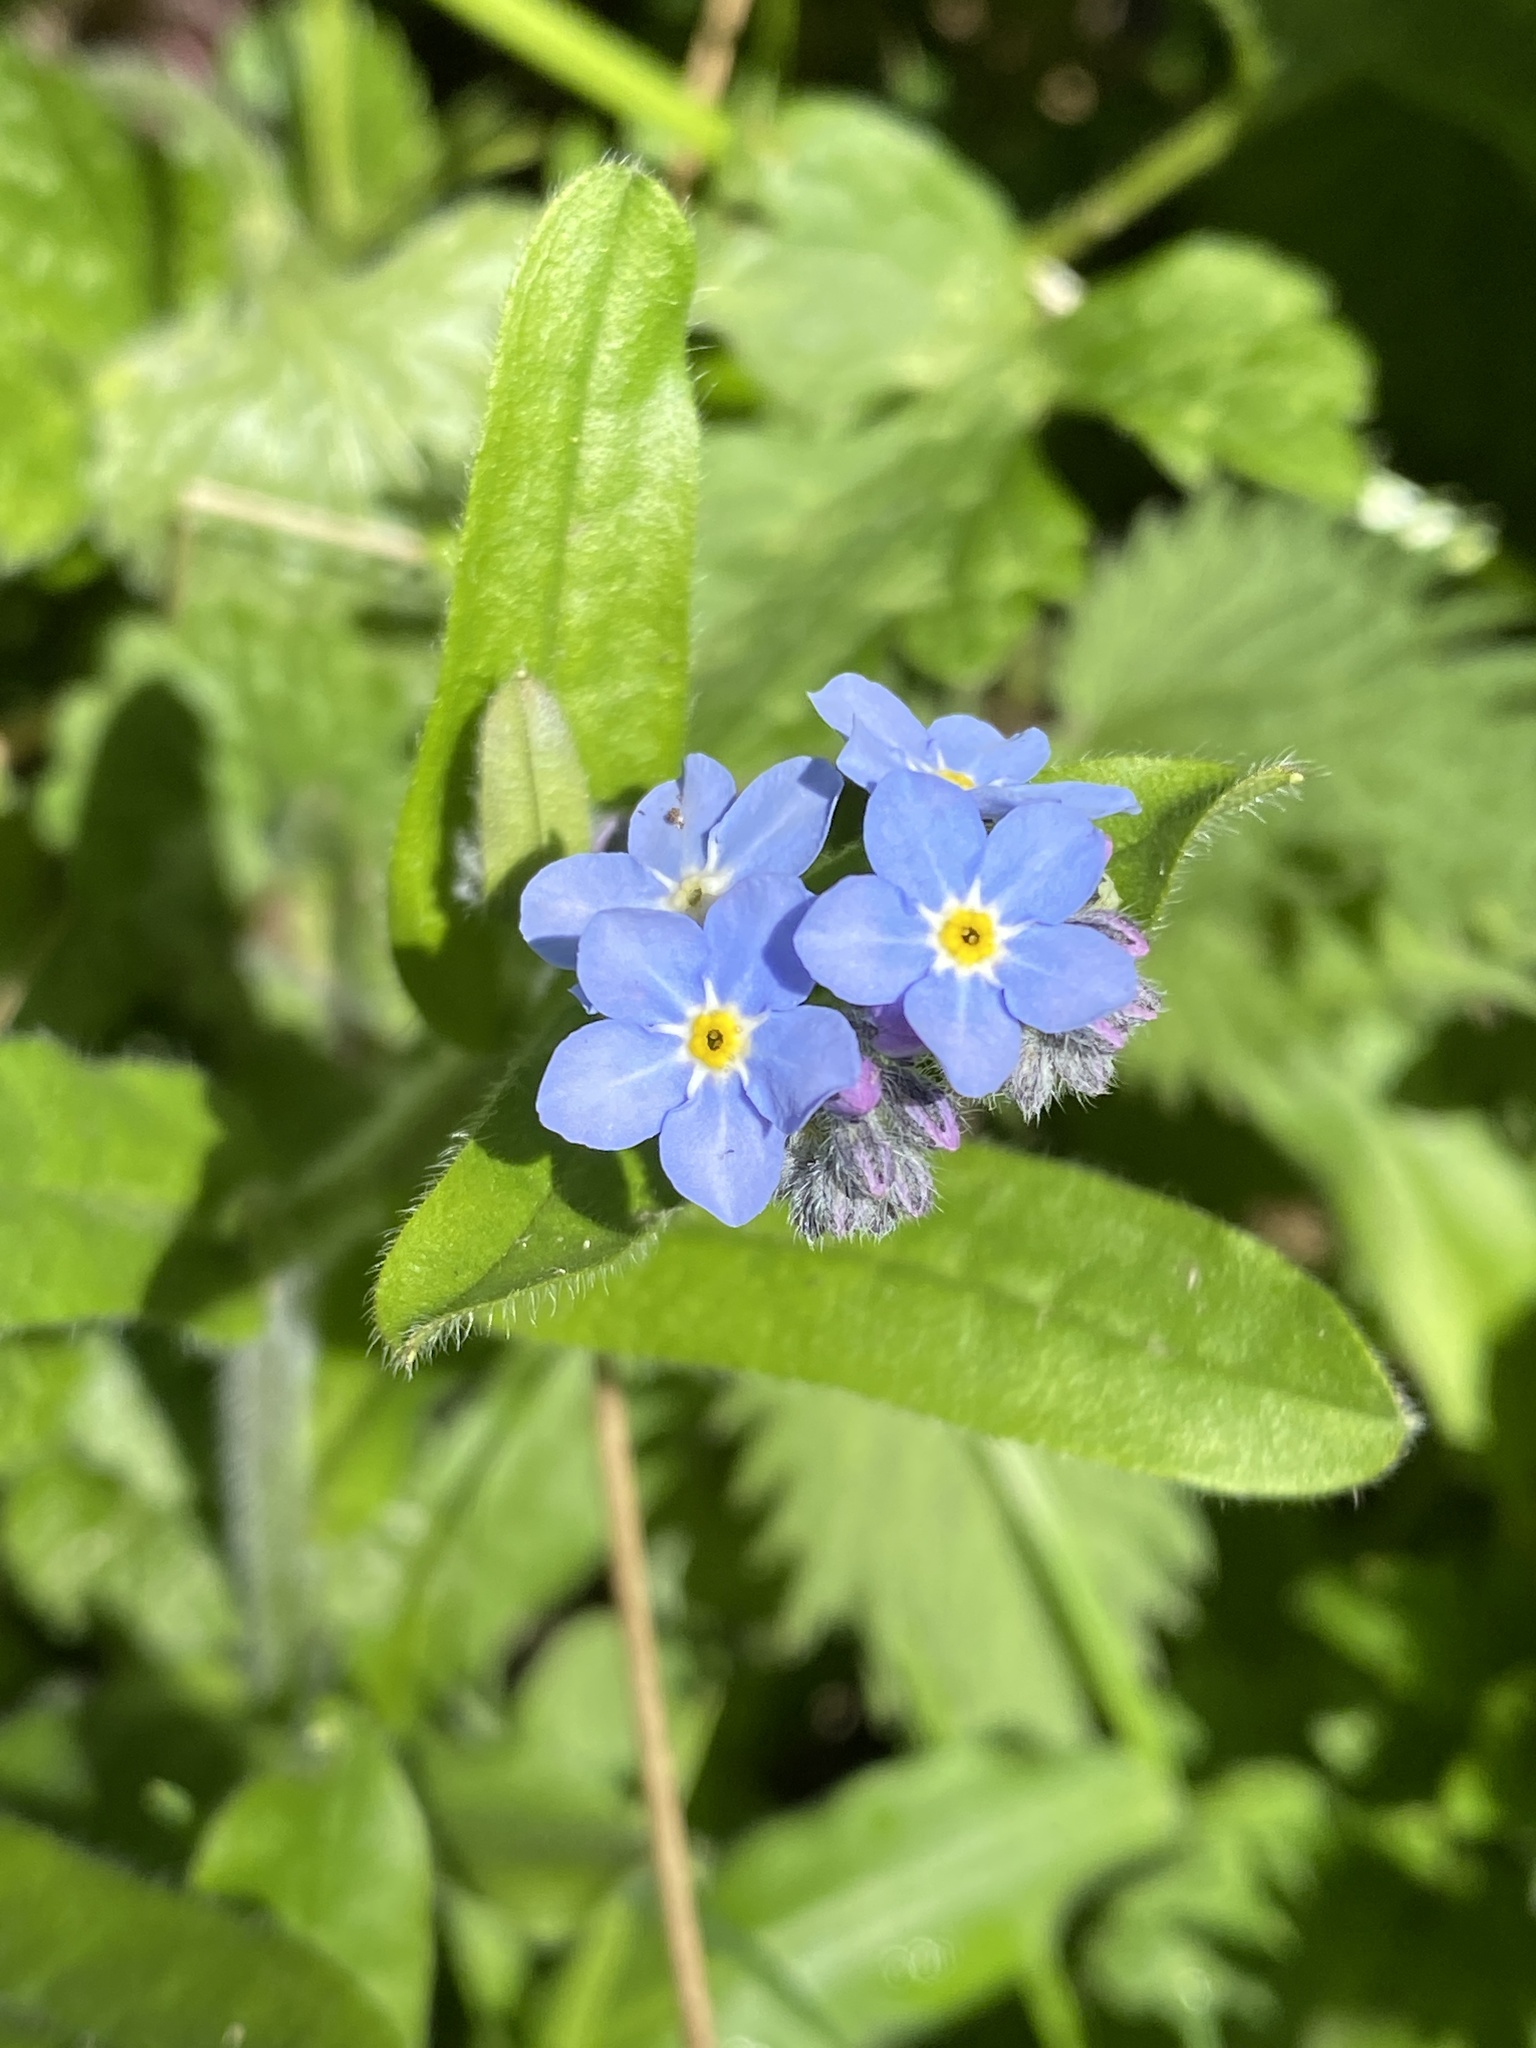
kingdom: Plantae
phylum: Tracheophyta
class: Magnoliopsida
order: Boraginales
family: Boraginaceae
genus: Myosotis
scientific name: Myosotis sylvatica
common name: Wood forget-me-not
